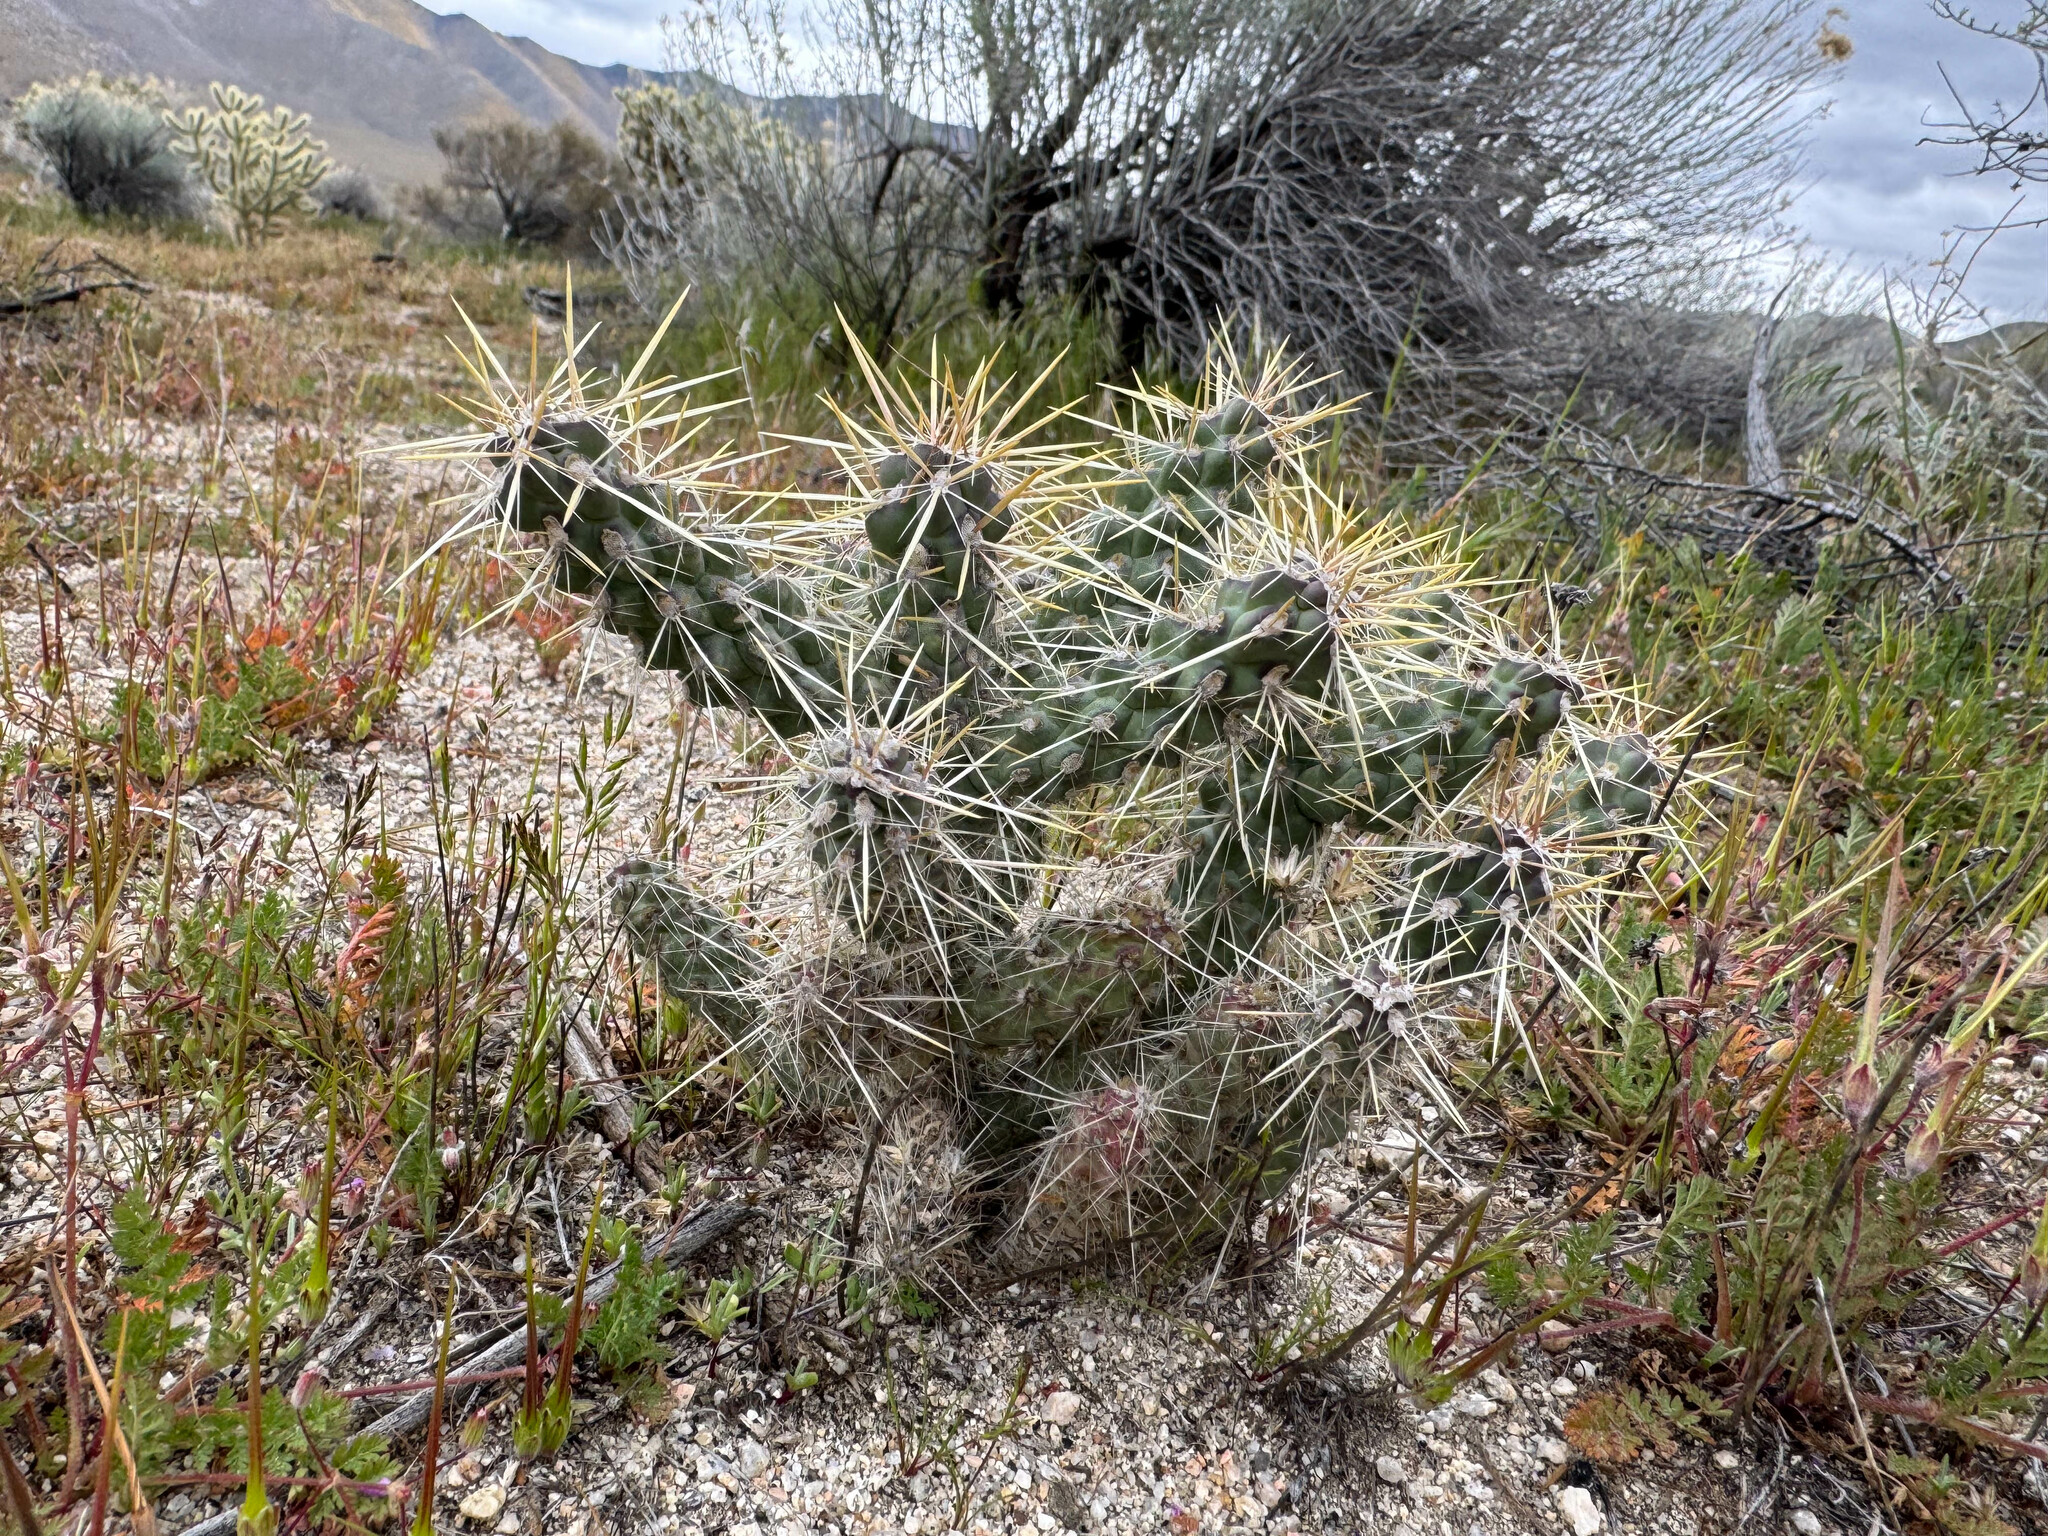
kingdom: Plantae
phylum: Tracheophyta
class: Magnoliopsida
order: Caryophyllales
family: Cactaceae
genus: Cylindropuntia
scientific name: Cylindropuntia echinocarpa
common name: Ground cholla
